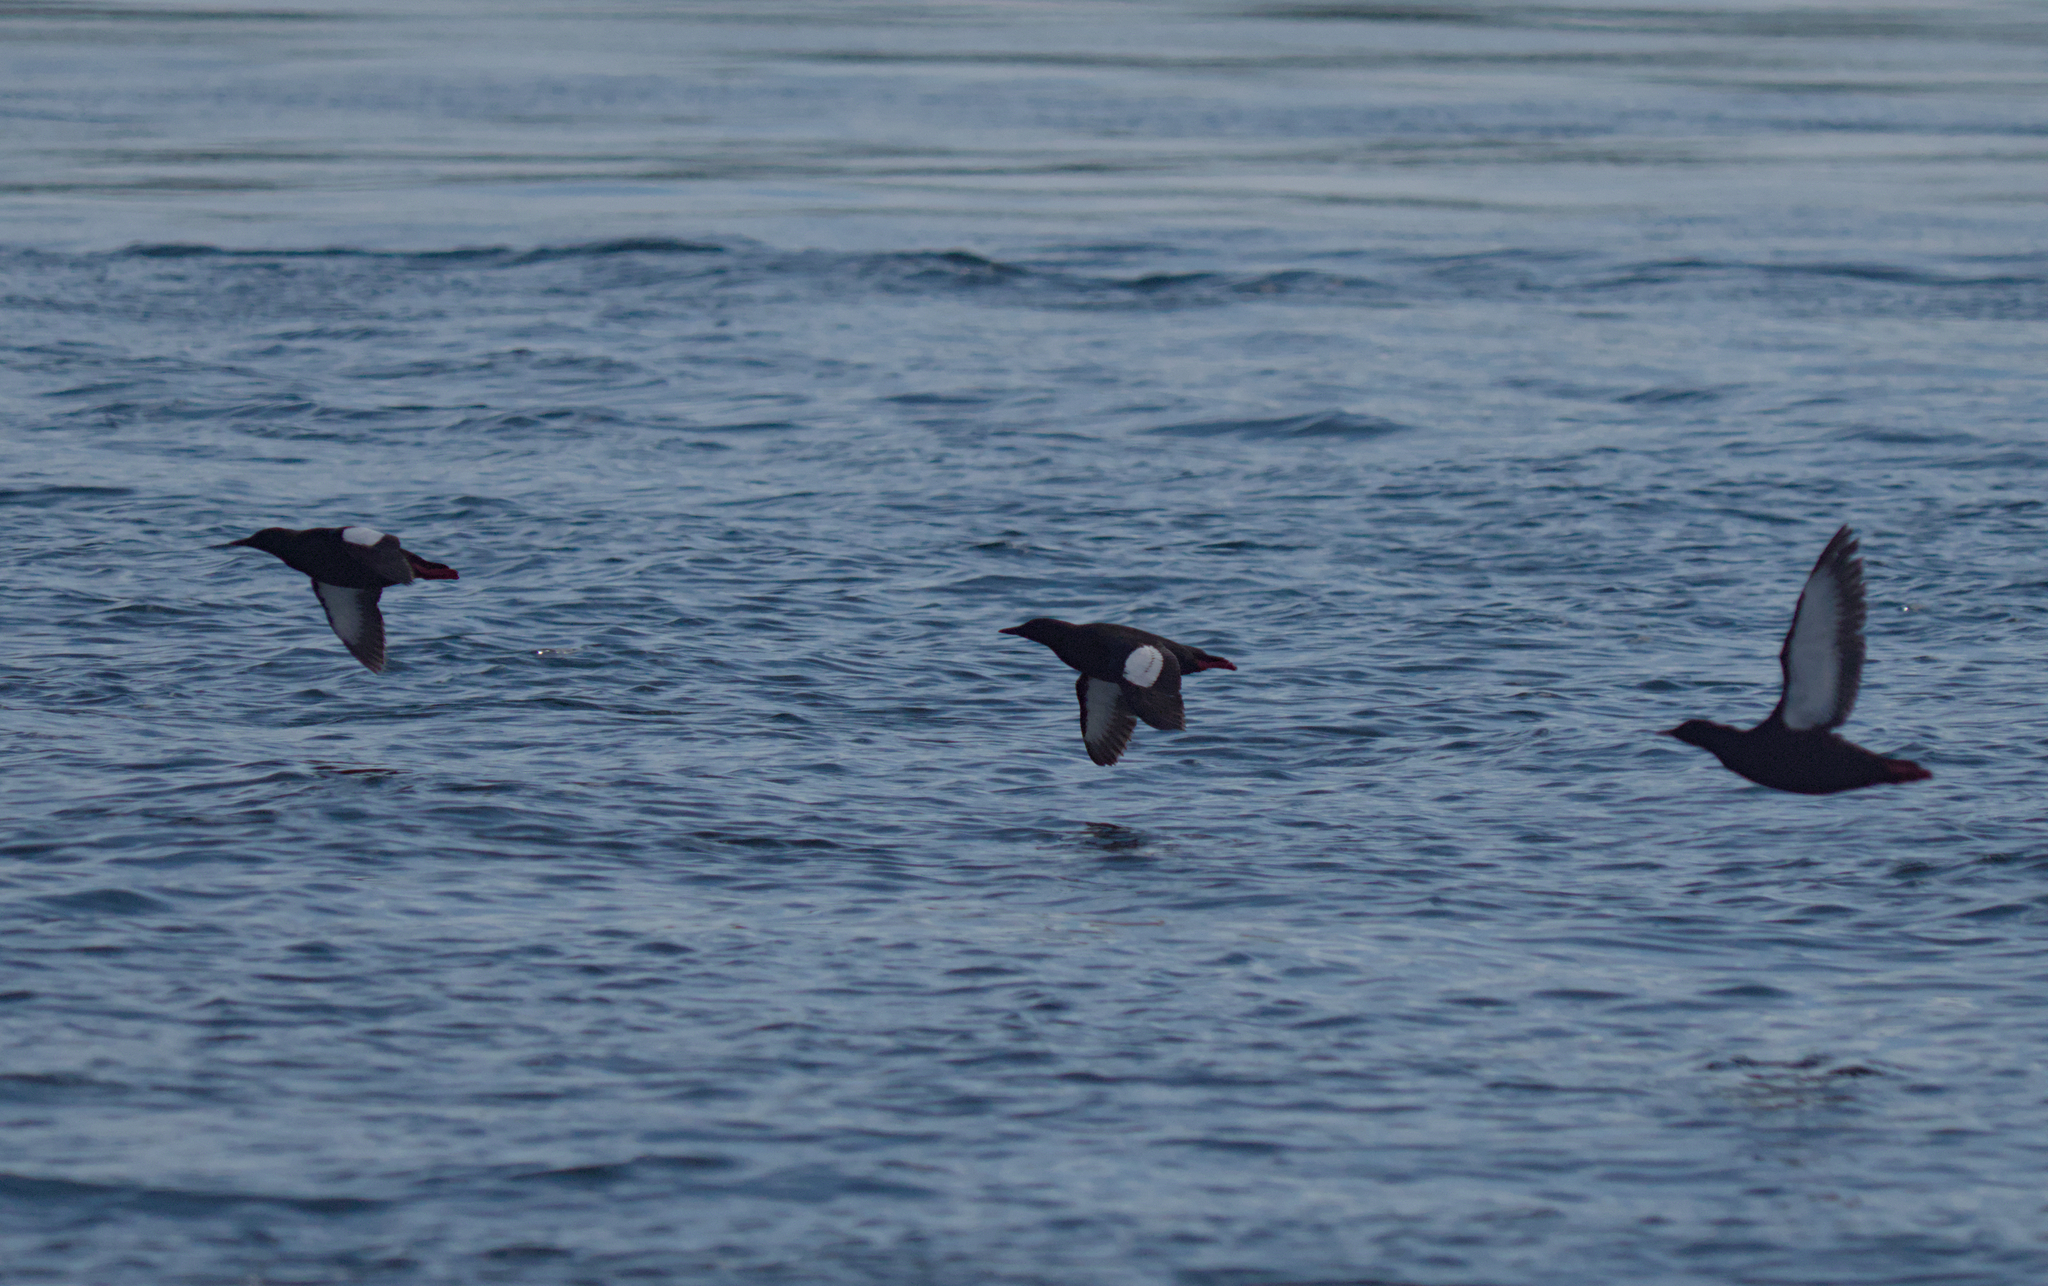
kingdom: Animalia
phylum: Chordata
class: Aves
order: Charadriiformes
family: Alcidae
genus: Cepphus
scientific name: Cepphus grylle
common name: Black guillemot
